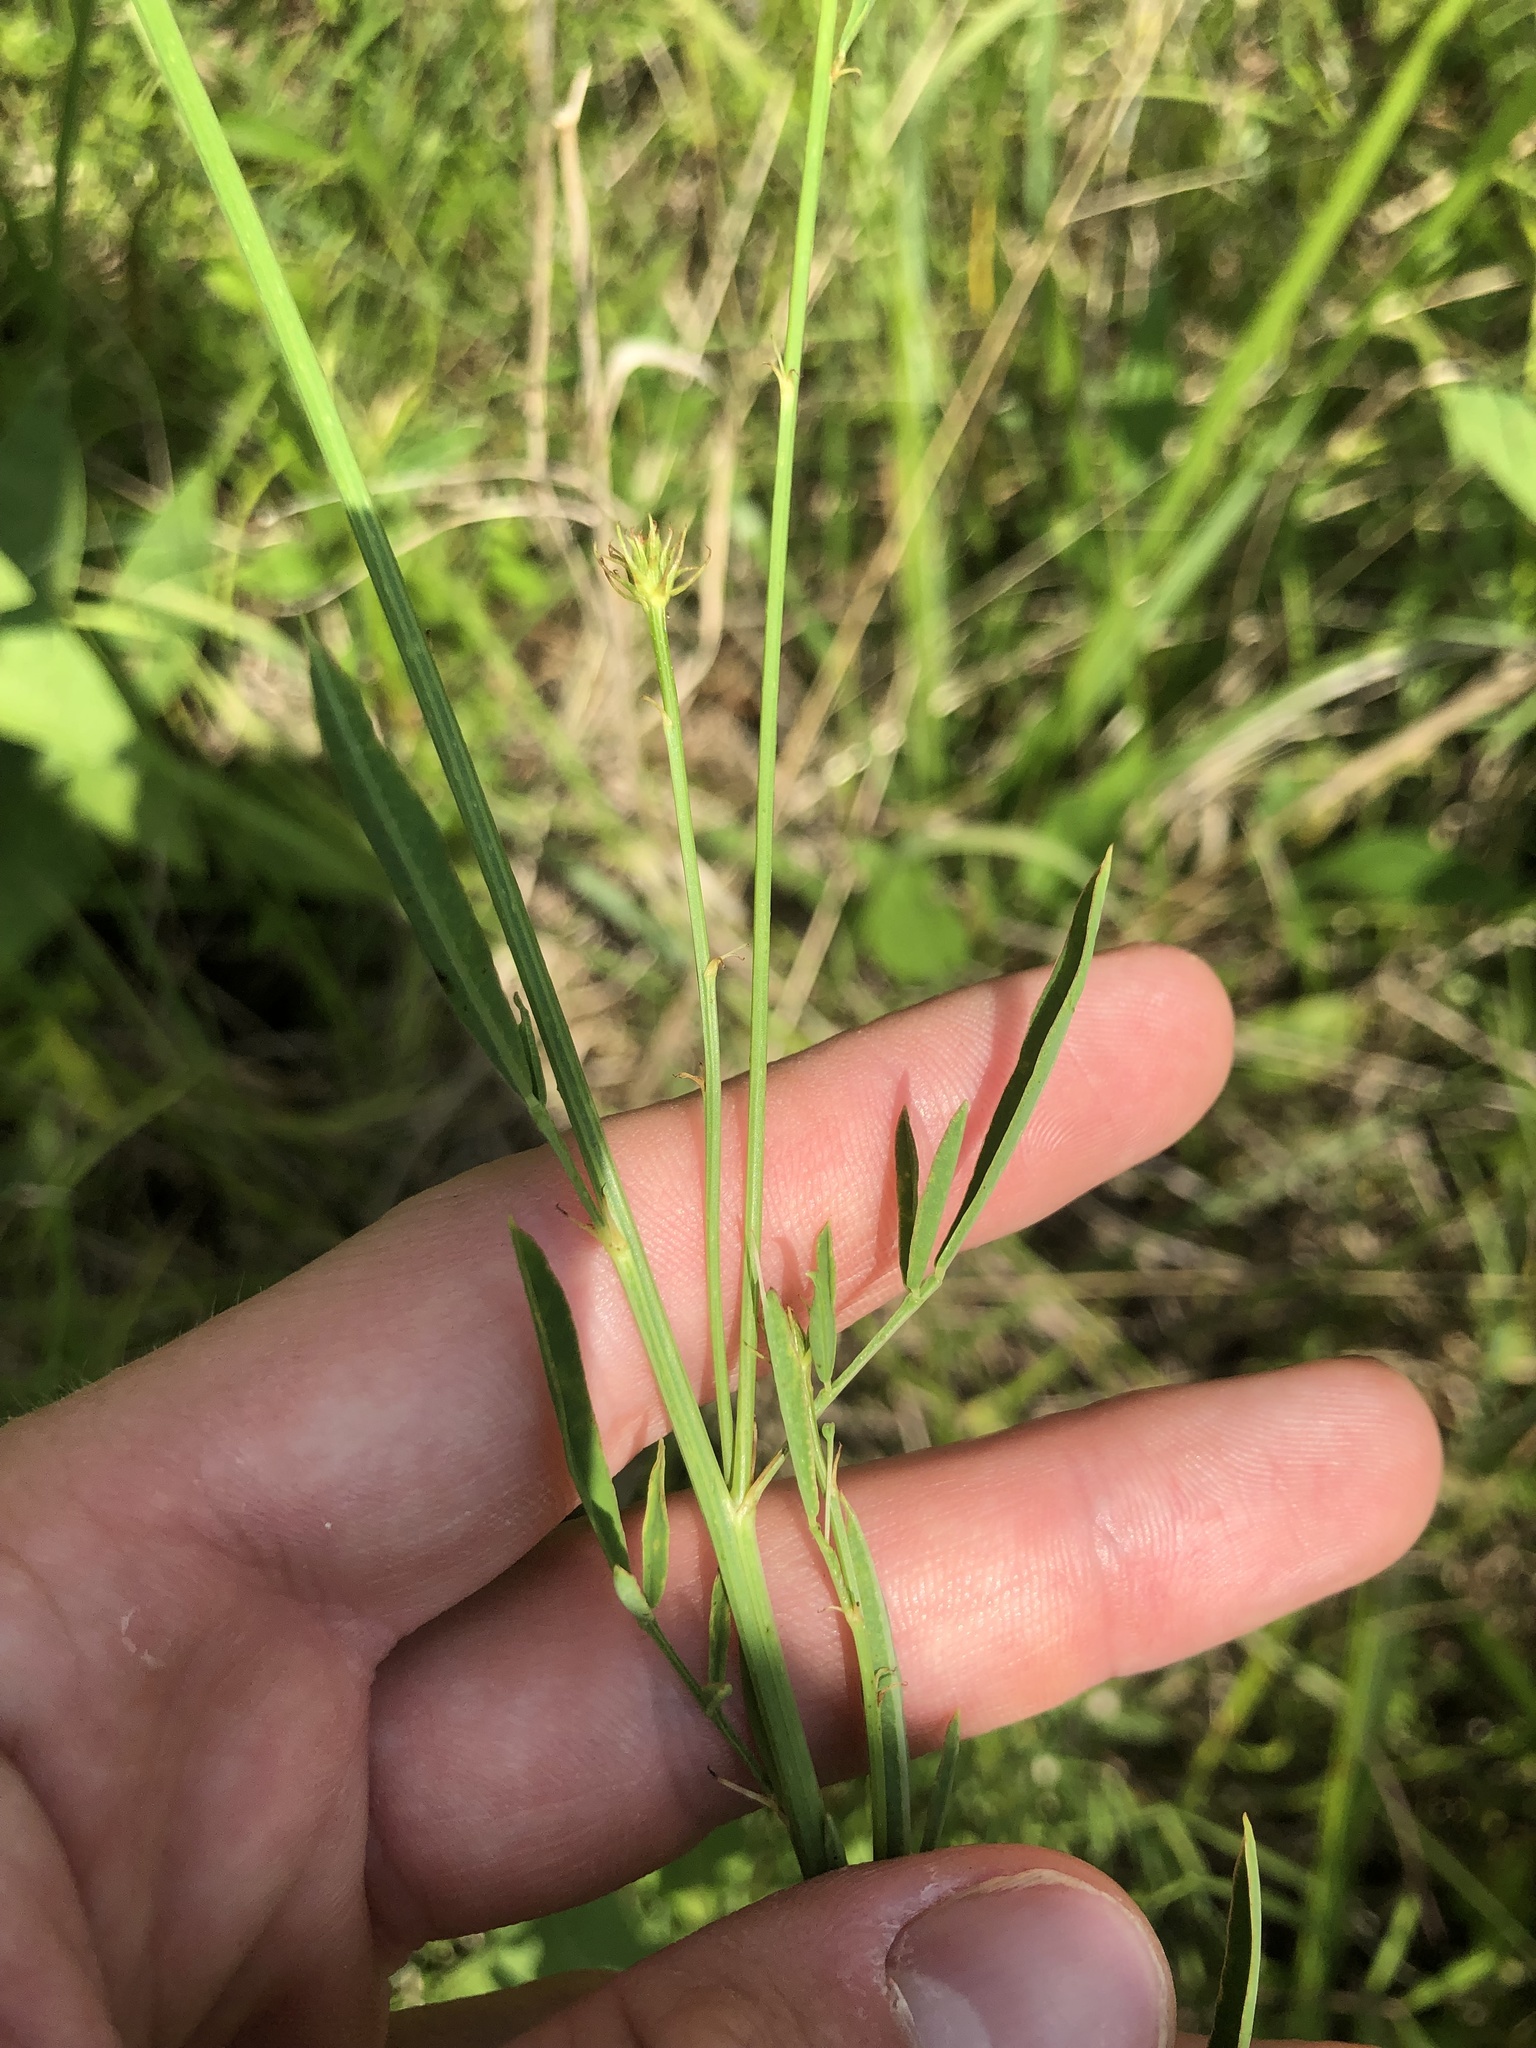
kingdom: Plantae
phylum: Tracheophyta
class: Magnoliopsida
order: Fabales
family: Fabaceae
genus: Dalea
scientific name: Dalea candida
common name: White prairie-clover
